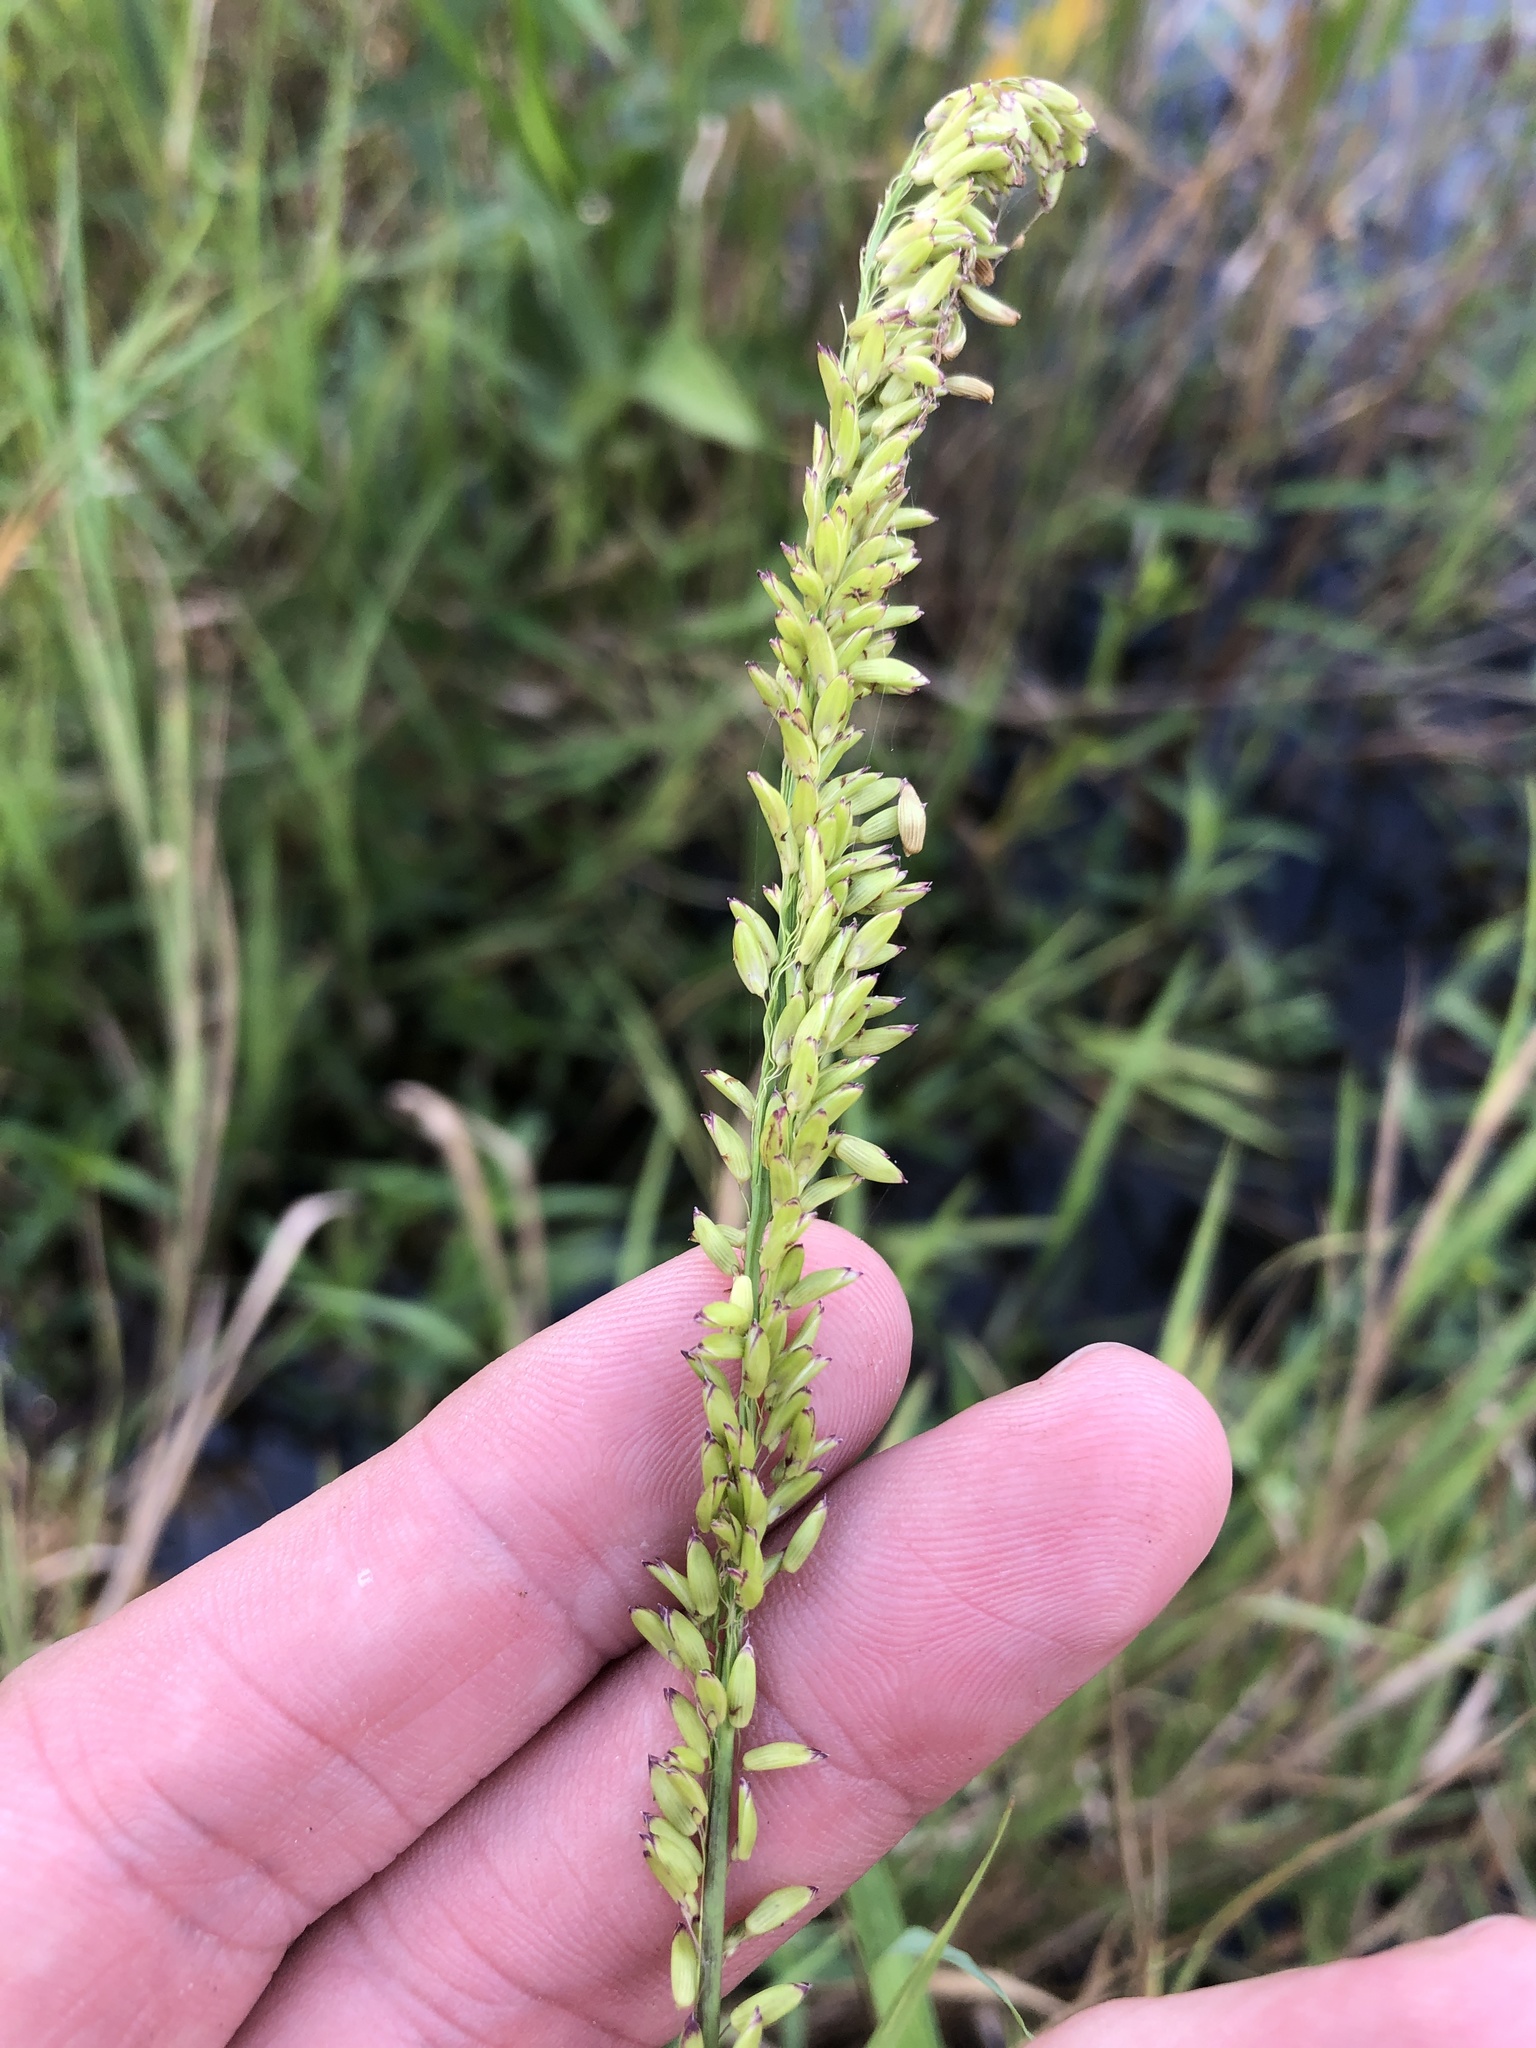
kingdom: Plantae
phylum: Tracheophyta
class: Liliopsida
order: Poales
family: Poaceae
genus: Sacciolepis
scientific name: Sacciolepis striata
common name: American cupscale
